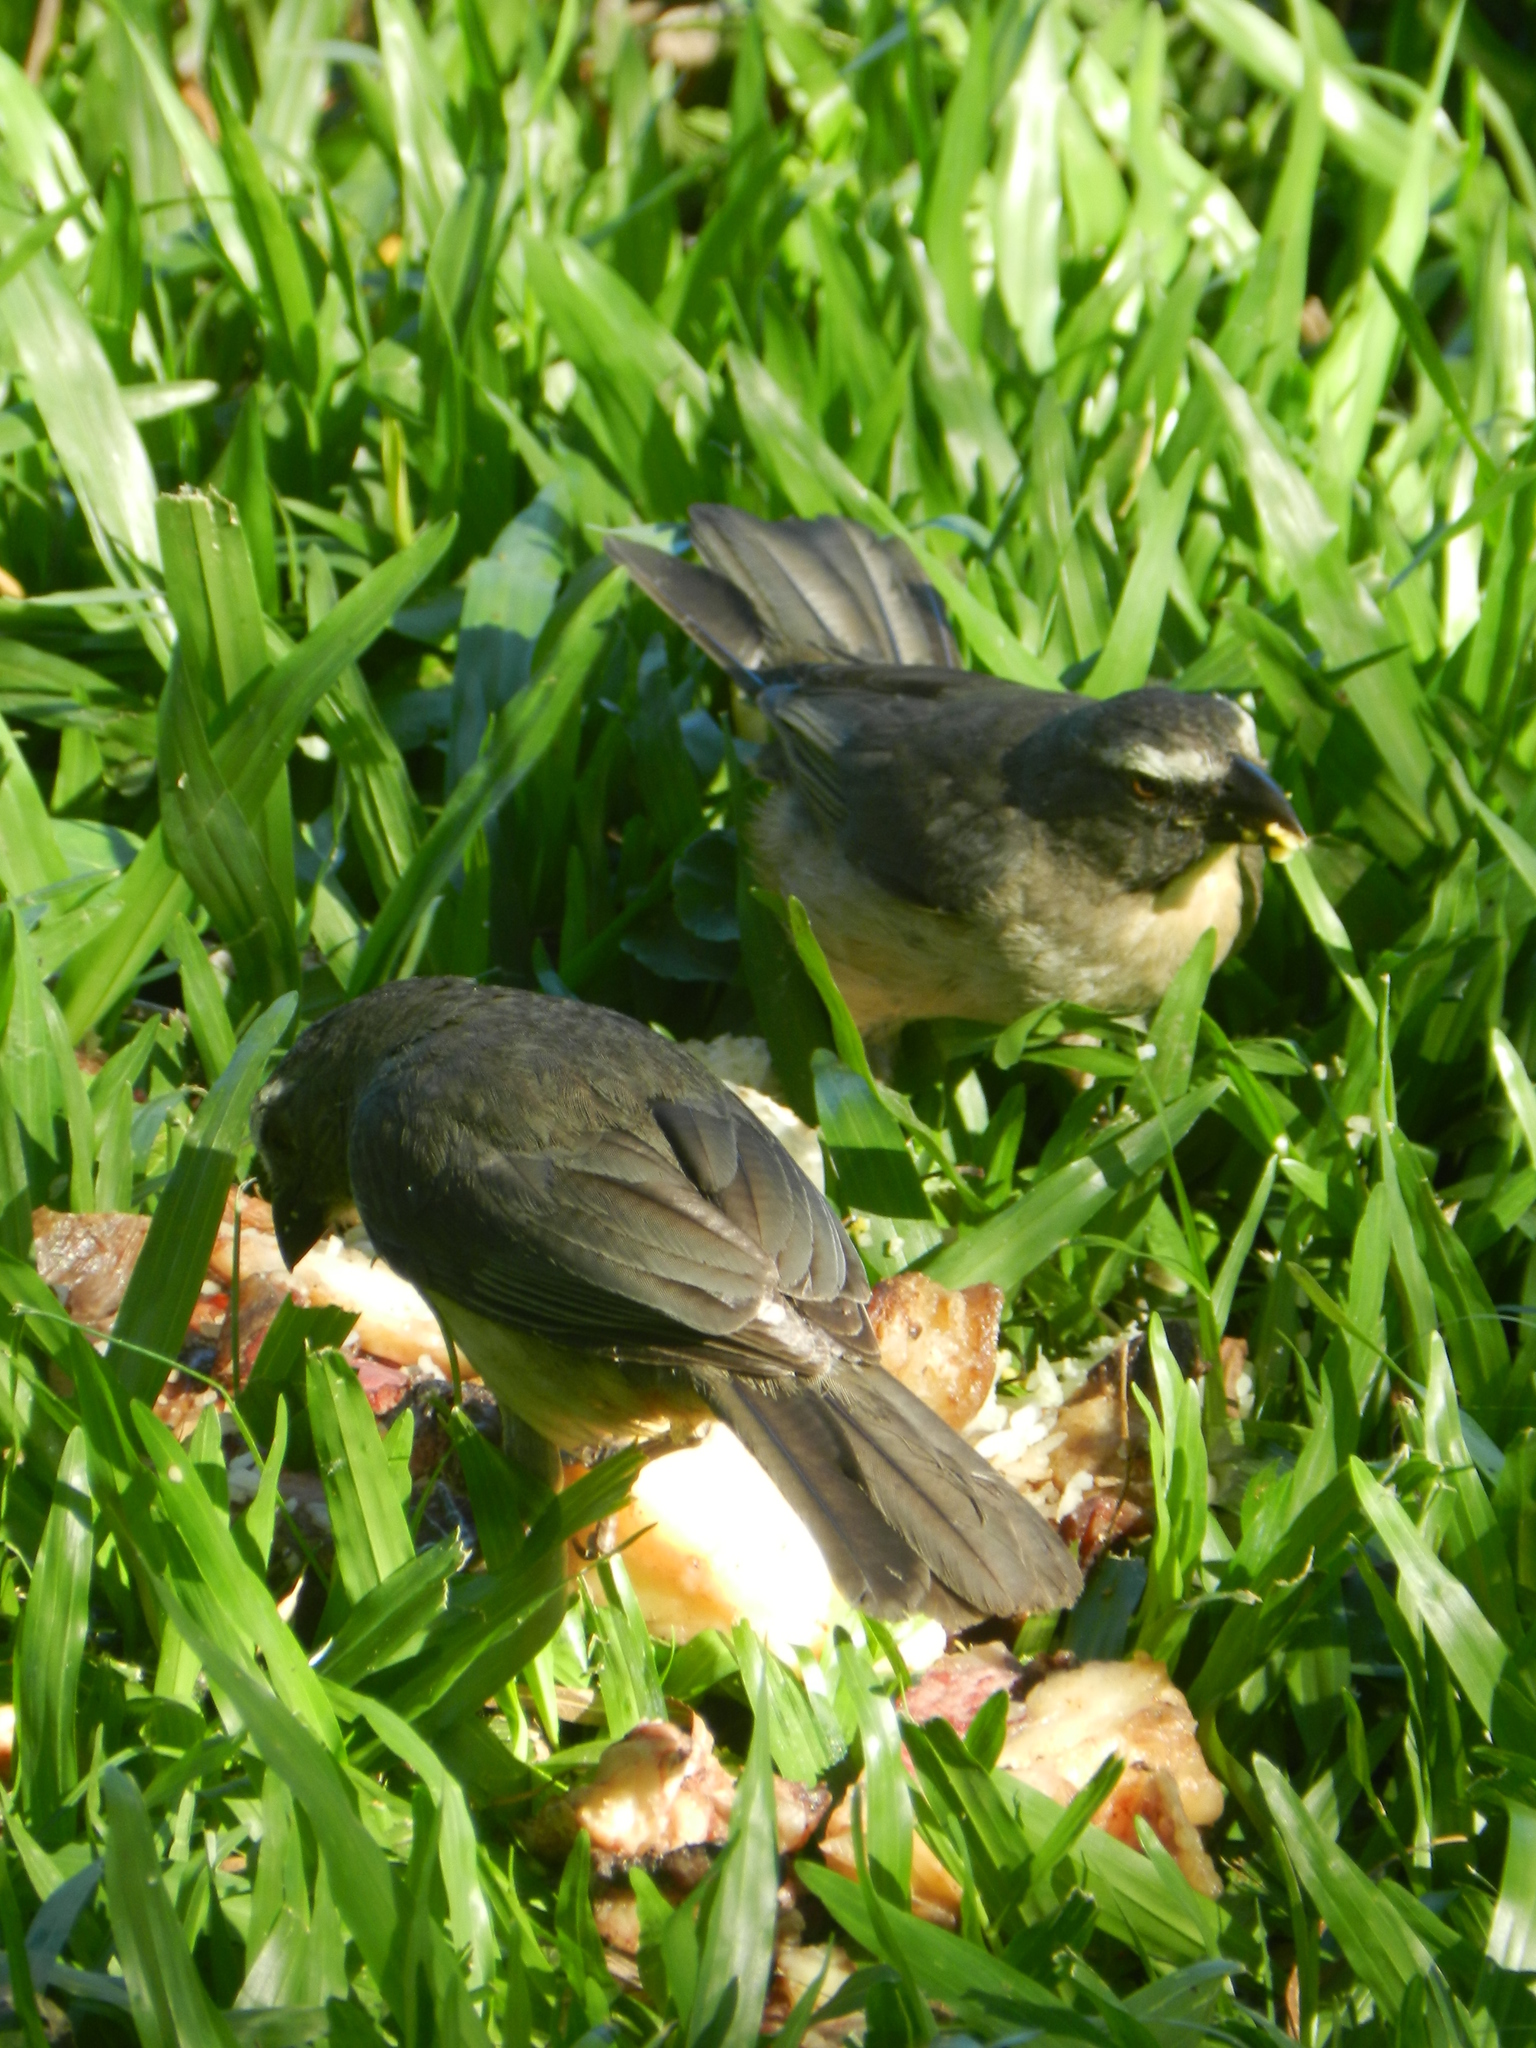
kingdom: Animalia
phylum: Chordata
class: Aves
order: Passeriformes
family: Thraupidae
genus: Saltator
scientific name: Saltator coerulescens
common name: Grayish saltator
